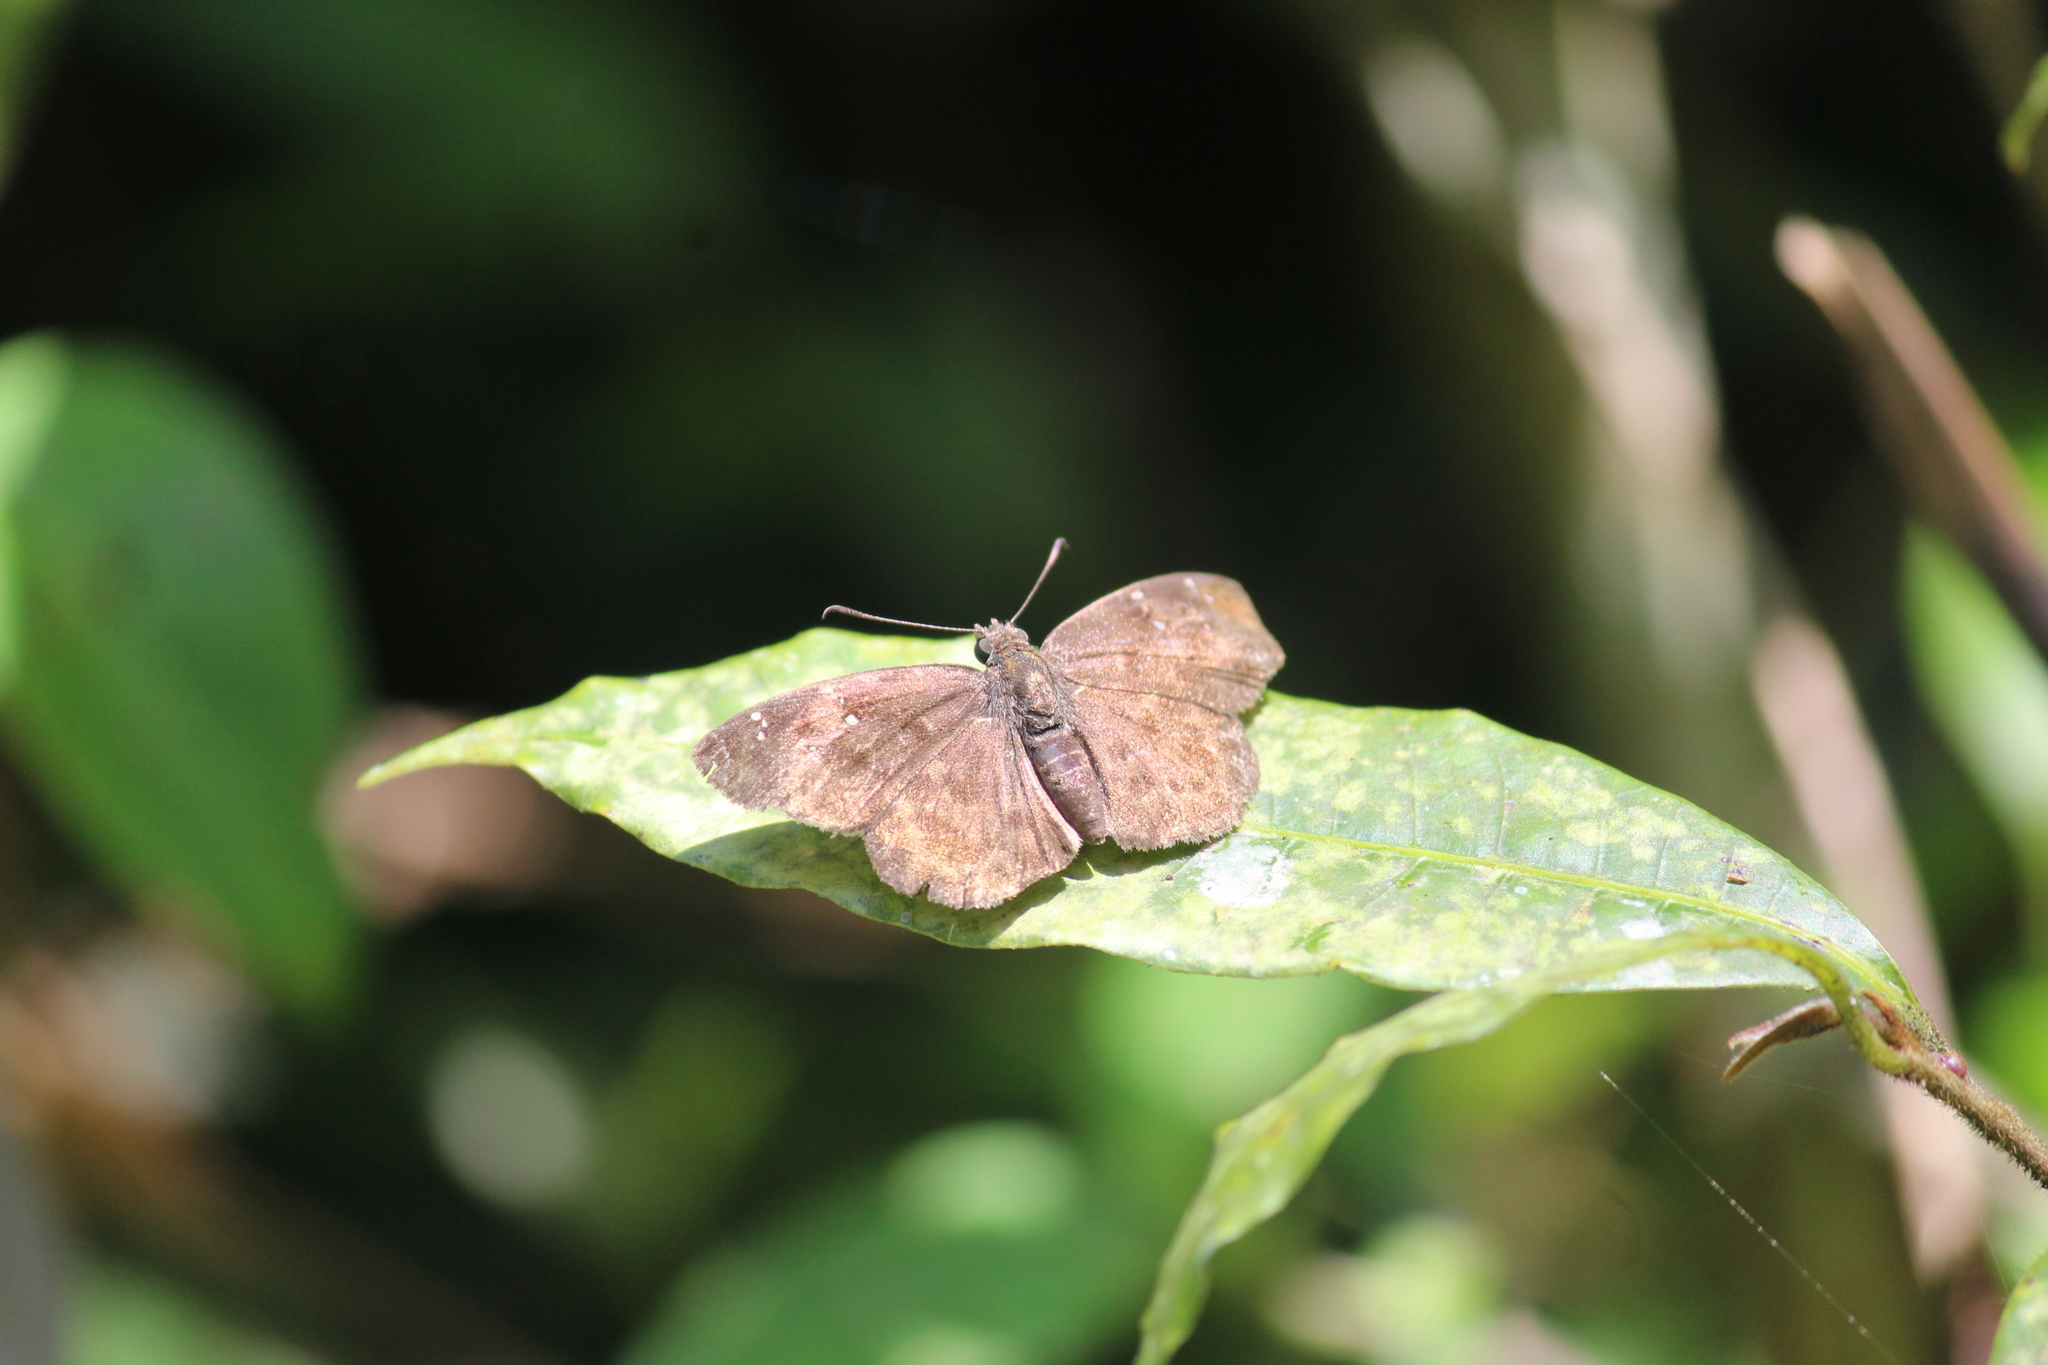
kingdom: Animalia
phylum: Arthropoda
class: Insecta
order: Lepidoptera
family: Hesperiidae
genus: Sarangesa
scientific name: Sarangesa dasahara
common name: Common small flat
